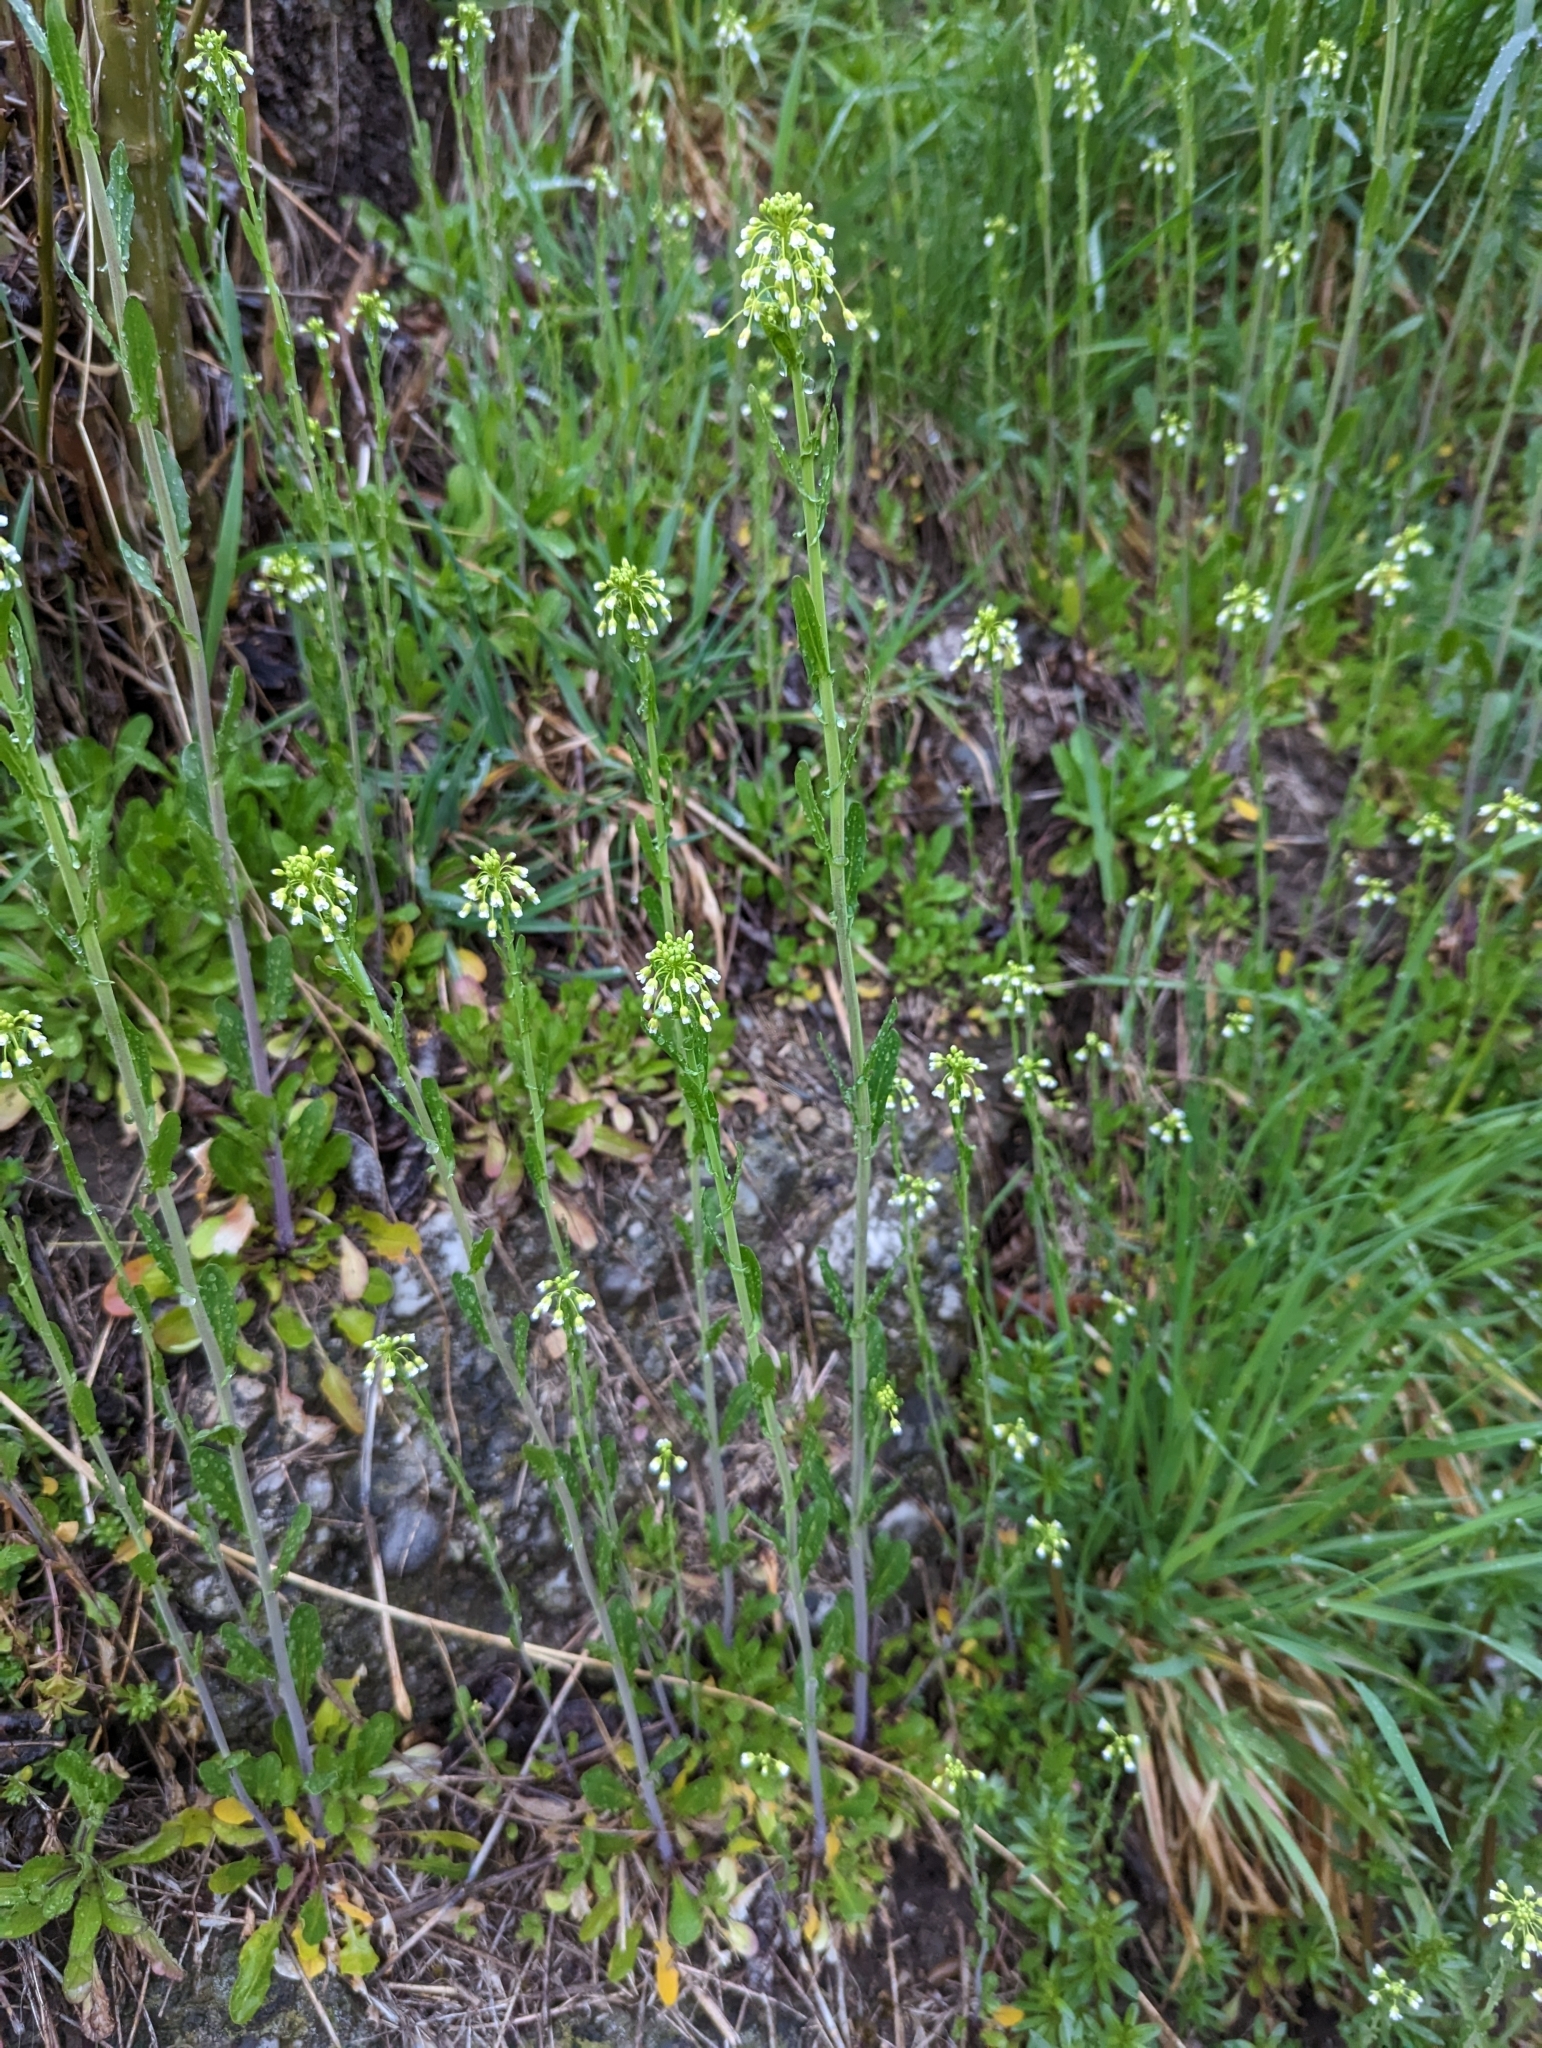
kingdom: Plantae
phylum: Tracheophyta
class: Magnoliopsida
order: Brassicales
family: Brassicaceae
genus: Mummenhoffia
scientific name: Mummenhoffia alliacea
